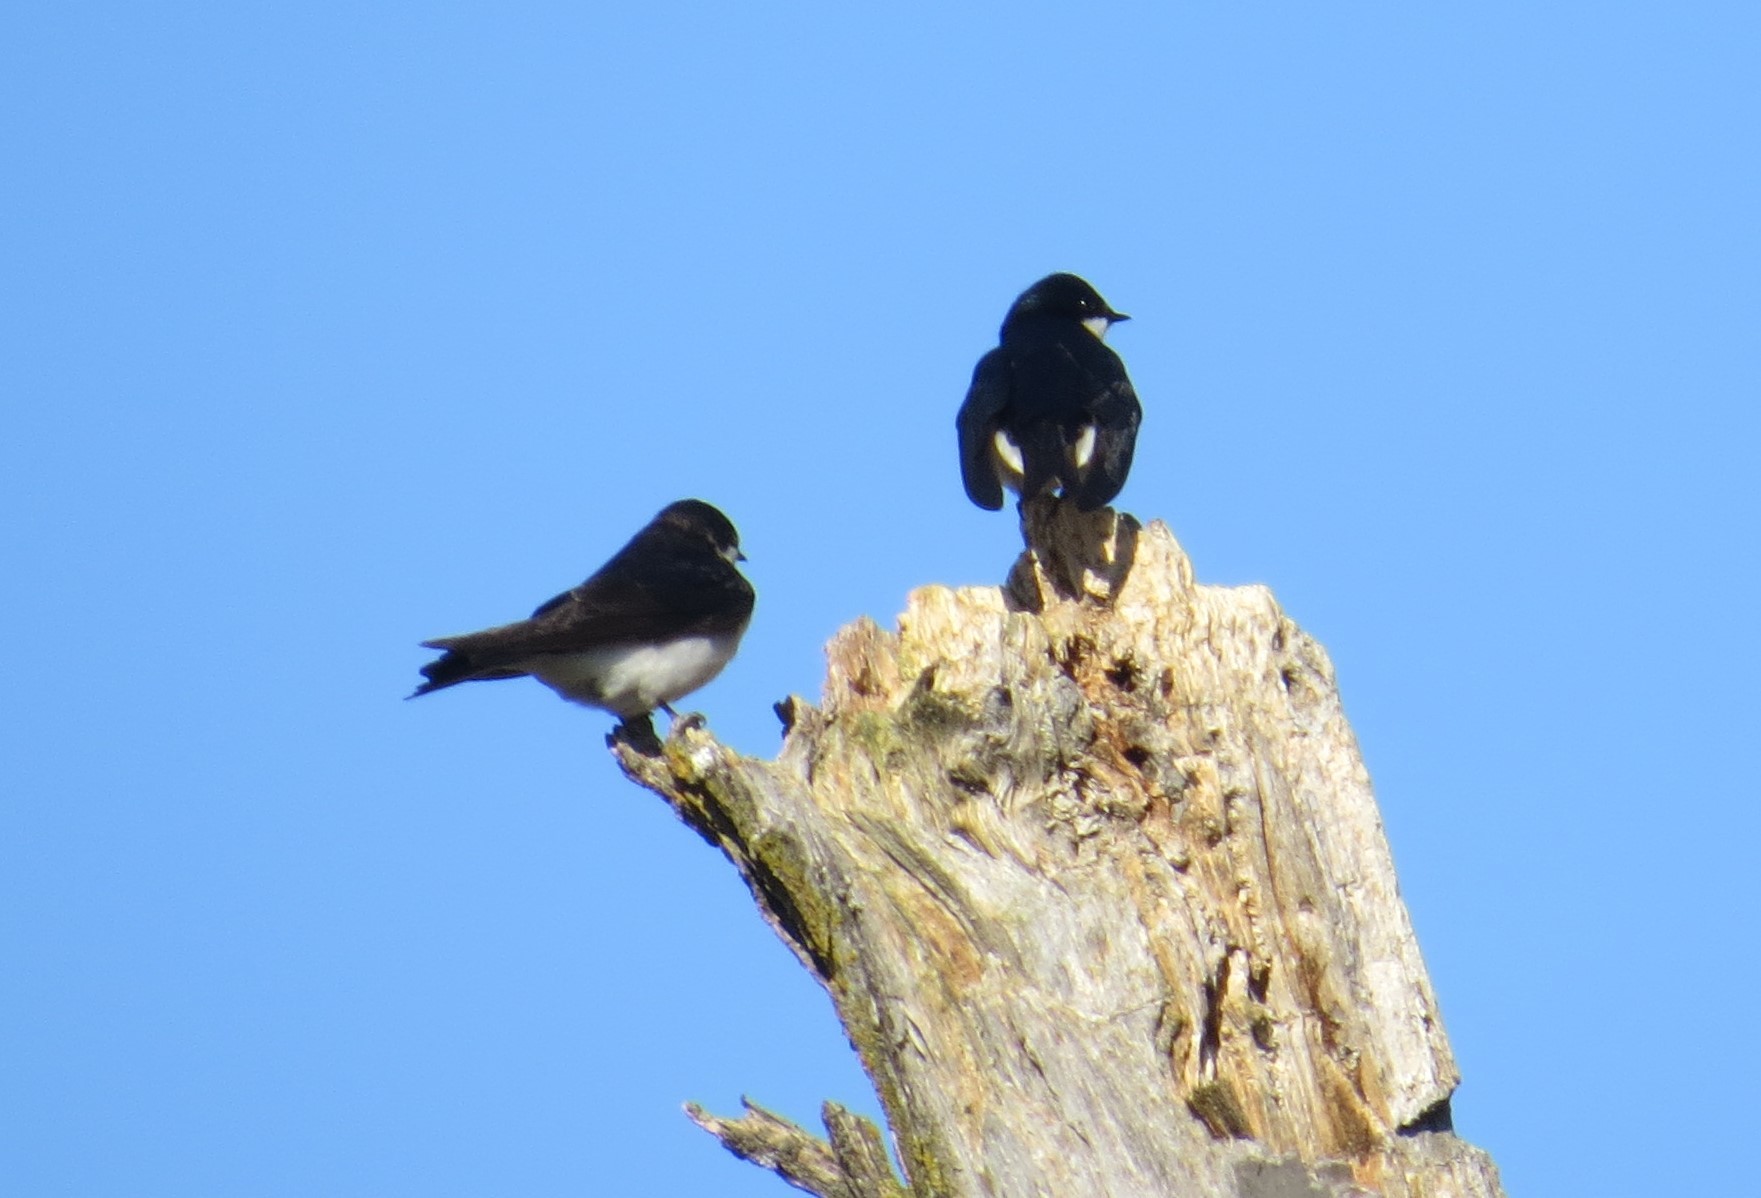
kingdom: Animalia
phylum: Chordata
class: Aves
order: Passeriformes
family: Hirundinidae
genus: Tachycineta
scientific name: Tachycineta bicolor
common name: Tree swallow
